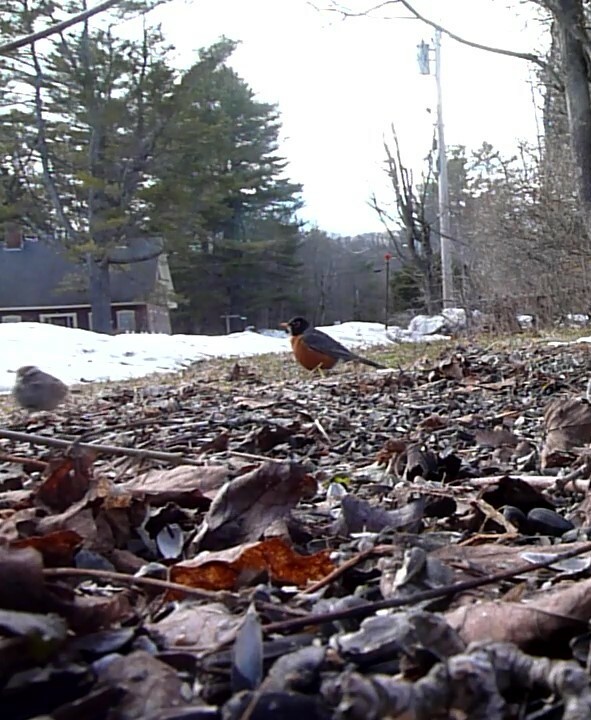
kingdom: Animalia
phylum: Chordata
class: Aves
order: Passeriformes
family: Turdidae
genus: Turdus
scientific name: Turdus migratorius
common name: American robin
